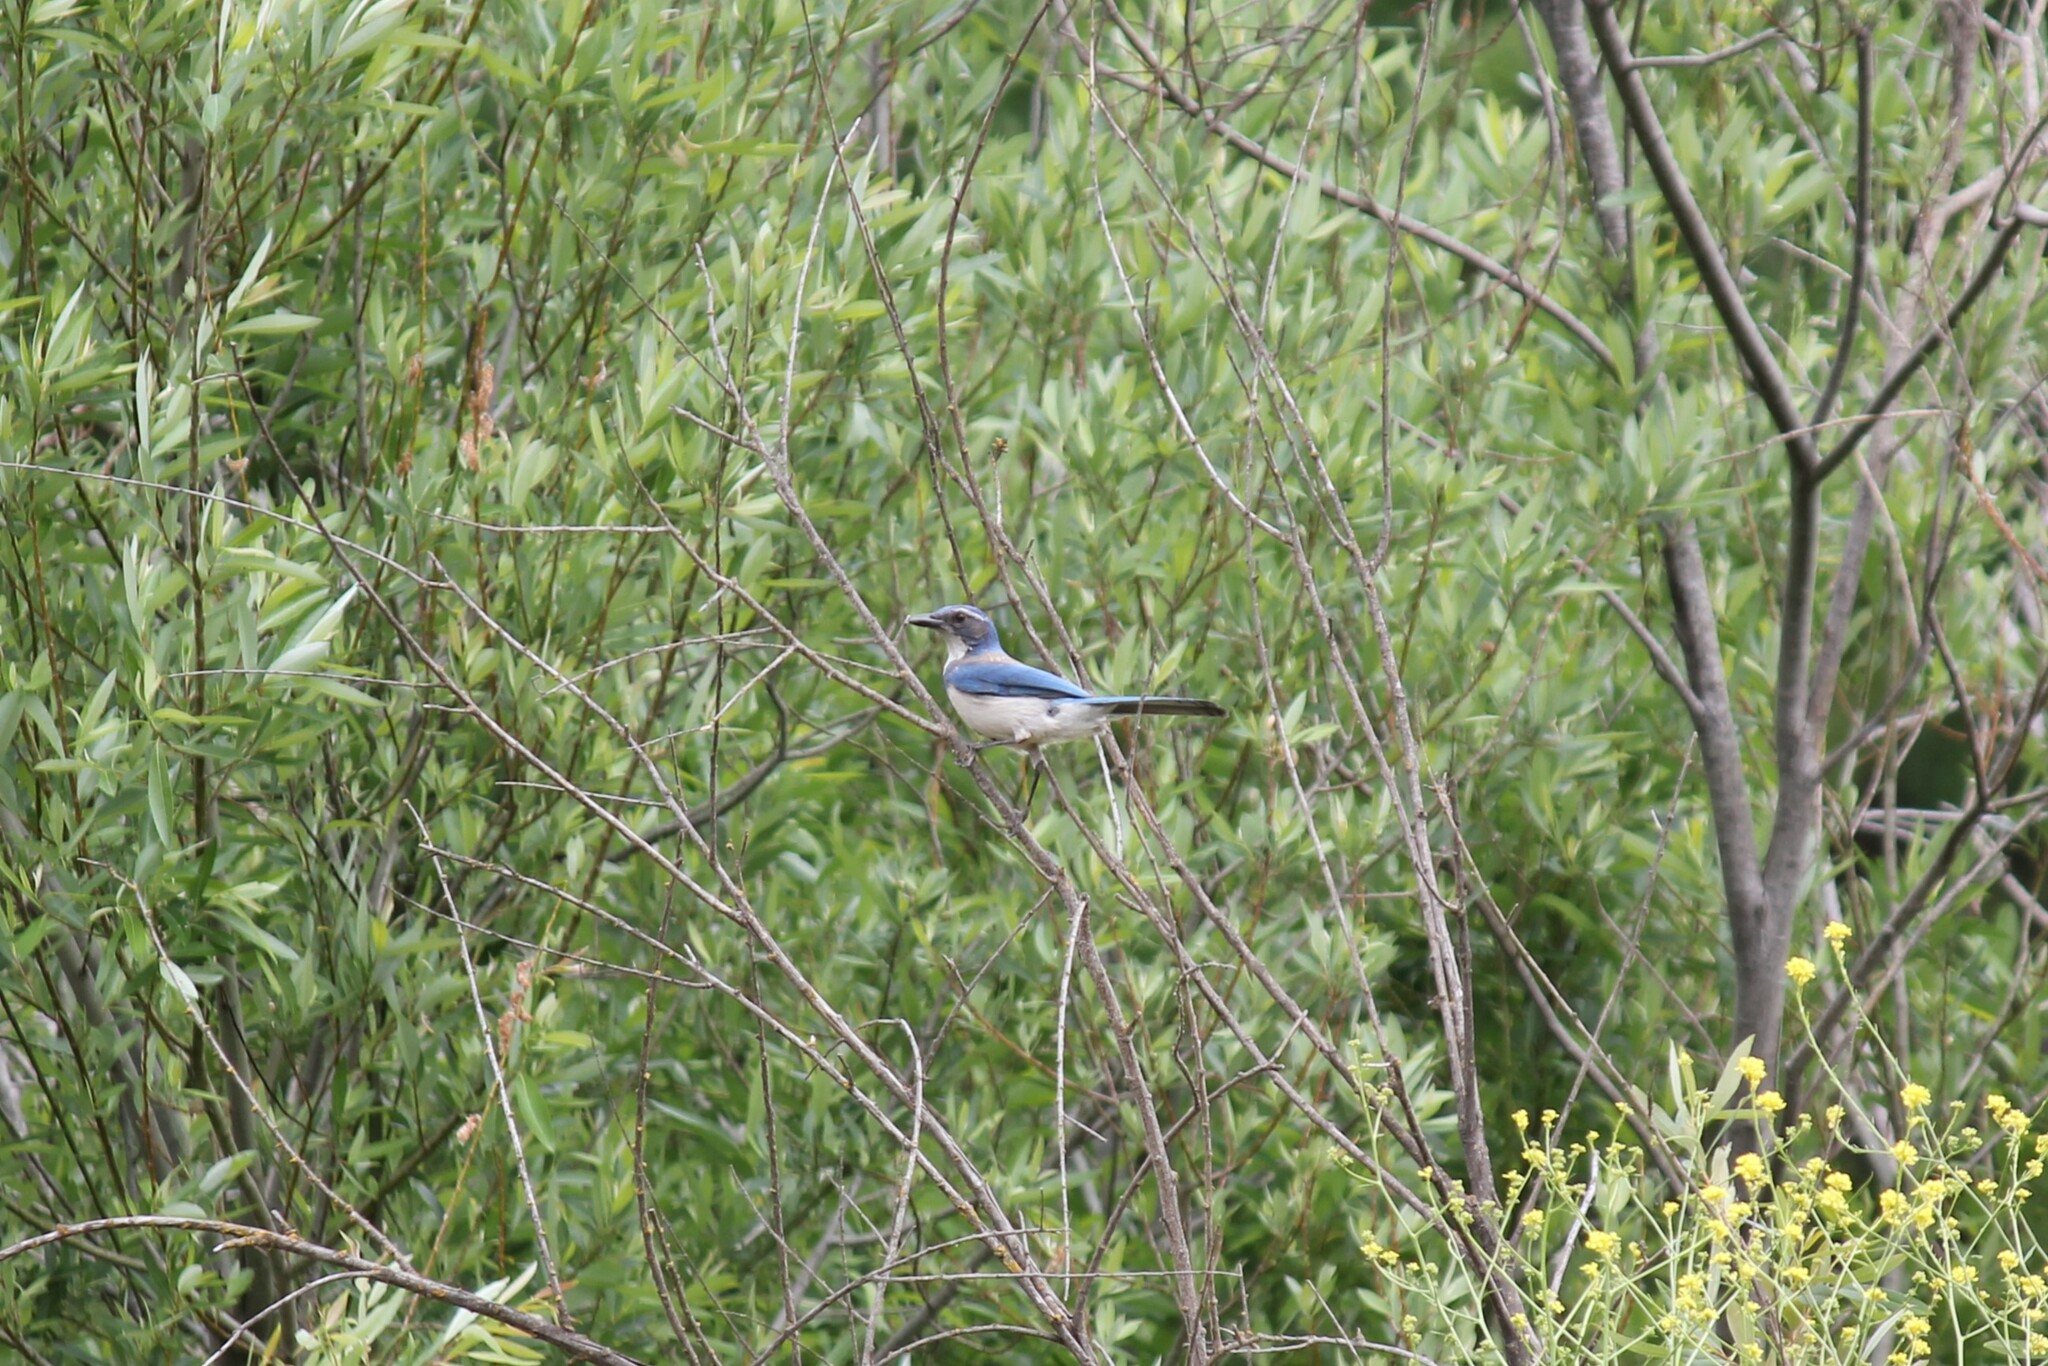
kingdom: Animalia
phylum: Chordata
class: Aves
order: Passeriformes
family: Corvidae
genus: Aphelocoma
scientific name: Aphelocoma californica
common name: California scrub-jay
